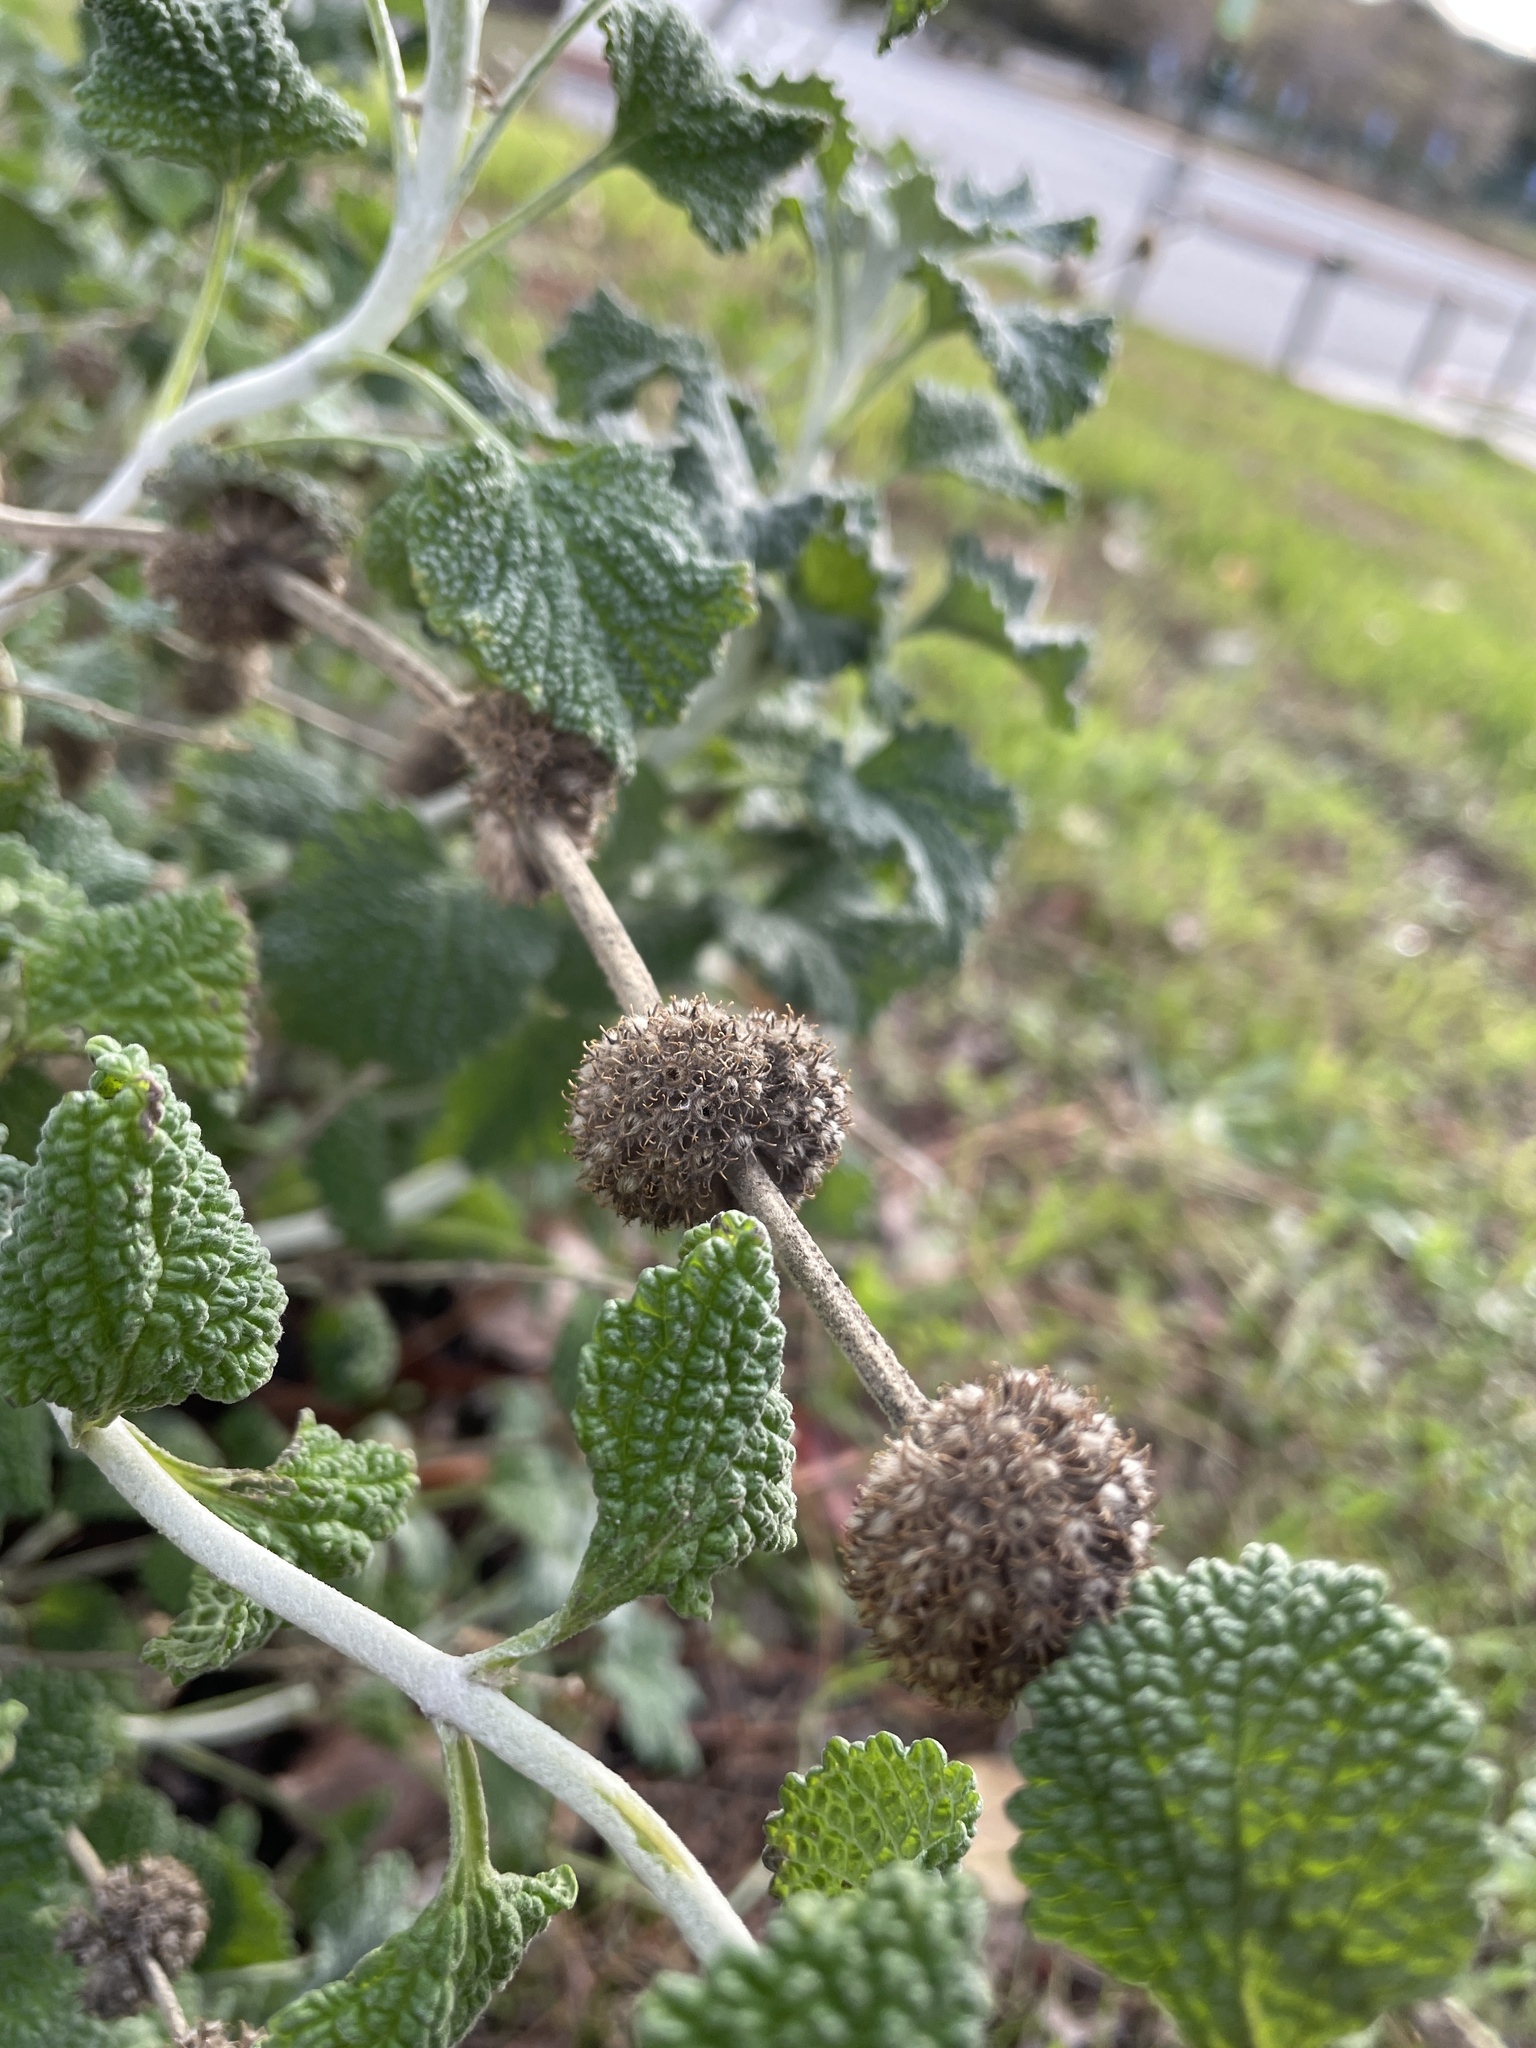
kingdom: Plantae
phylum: Tracheophyta
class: Magnoliopsida
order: Lamiales
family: Lamiaceae
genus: Marrubium
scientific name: Marrubium vulgare
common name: Horehound
